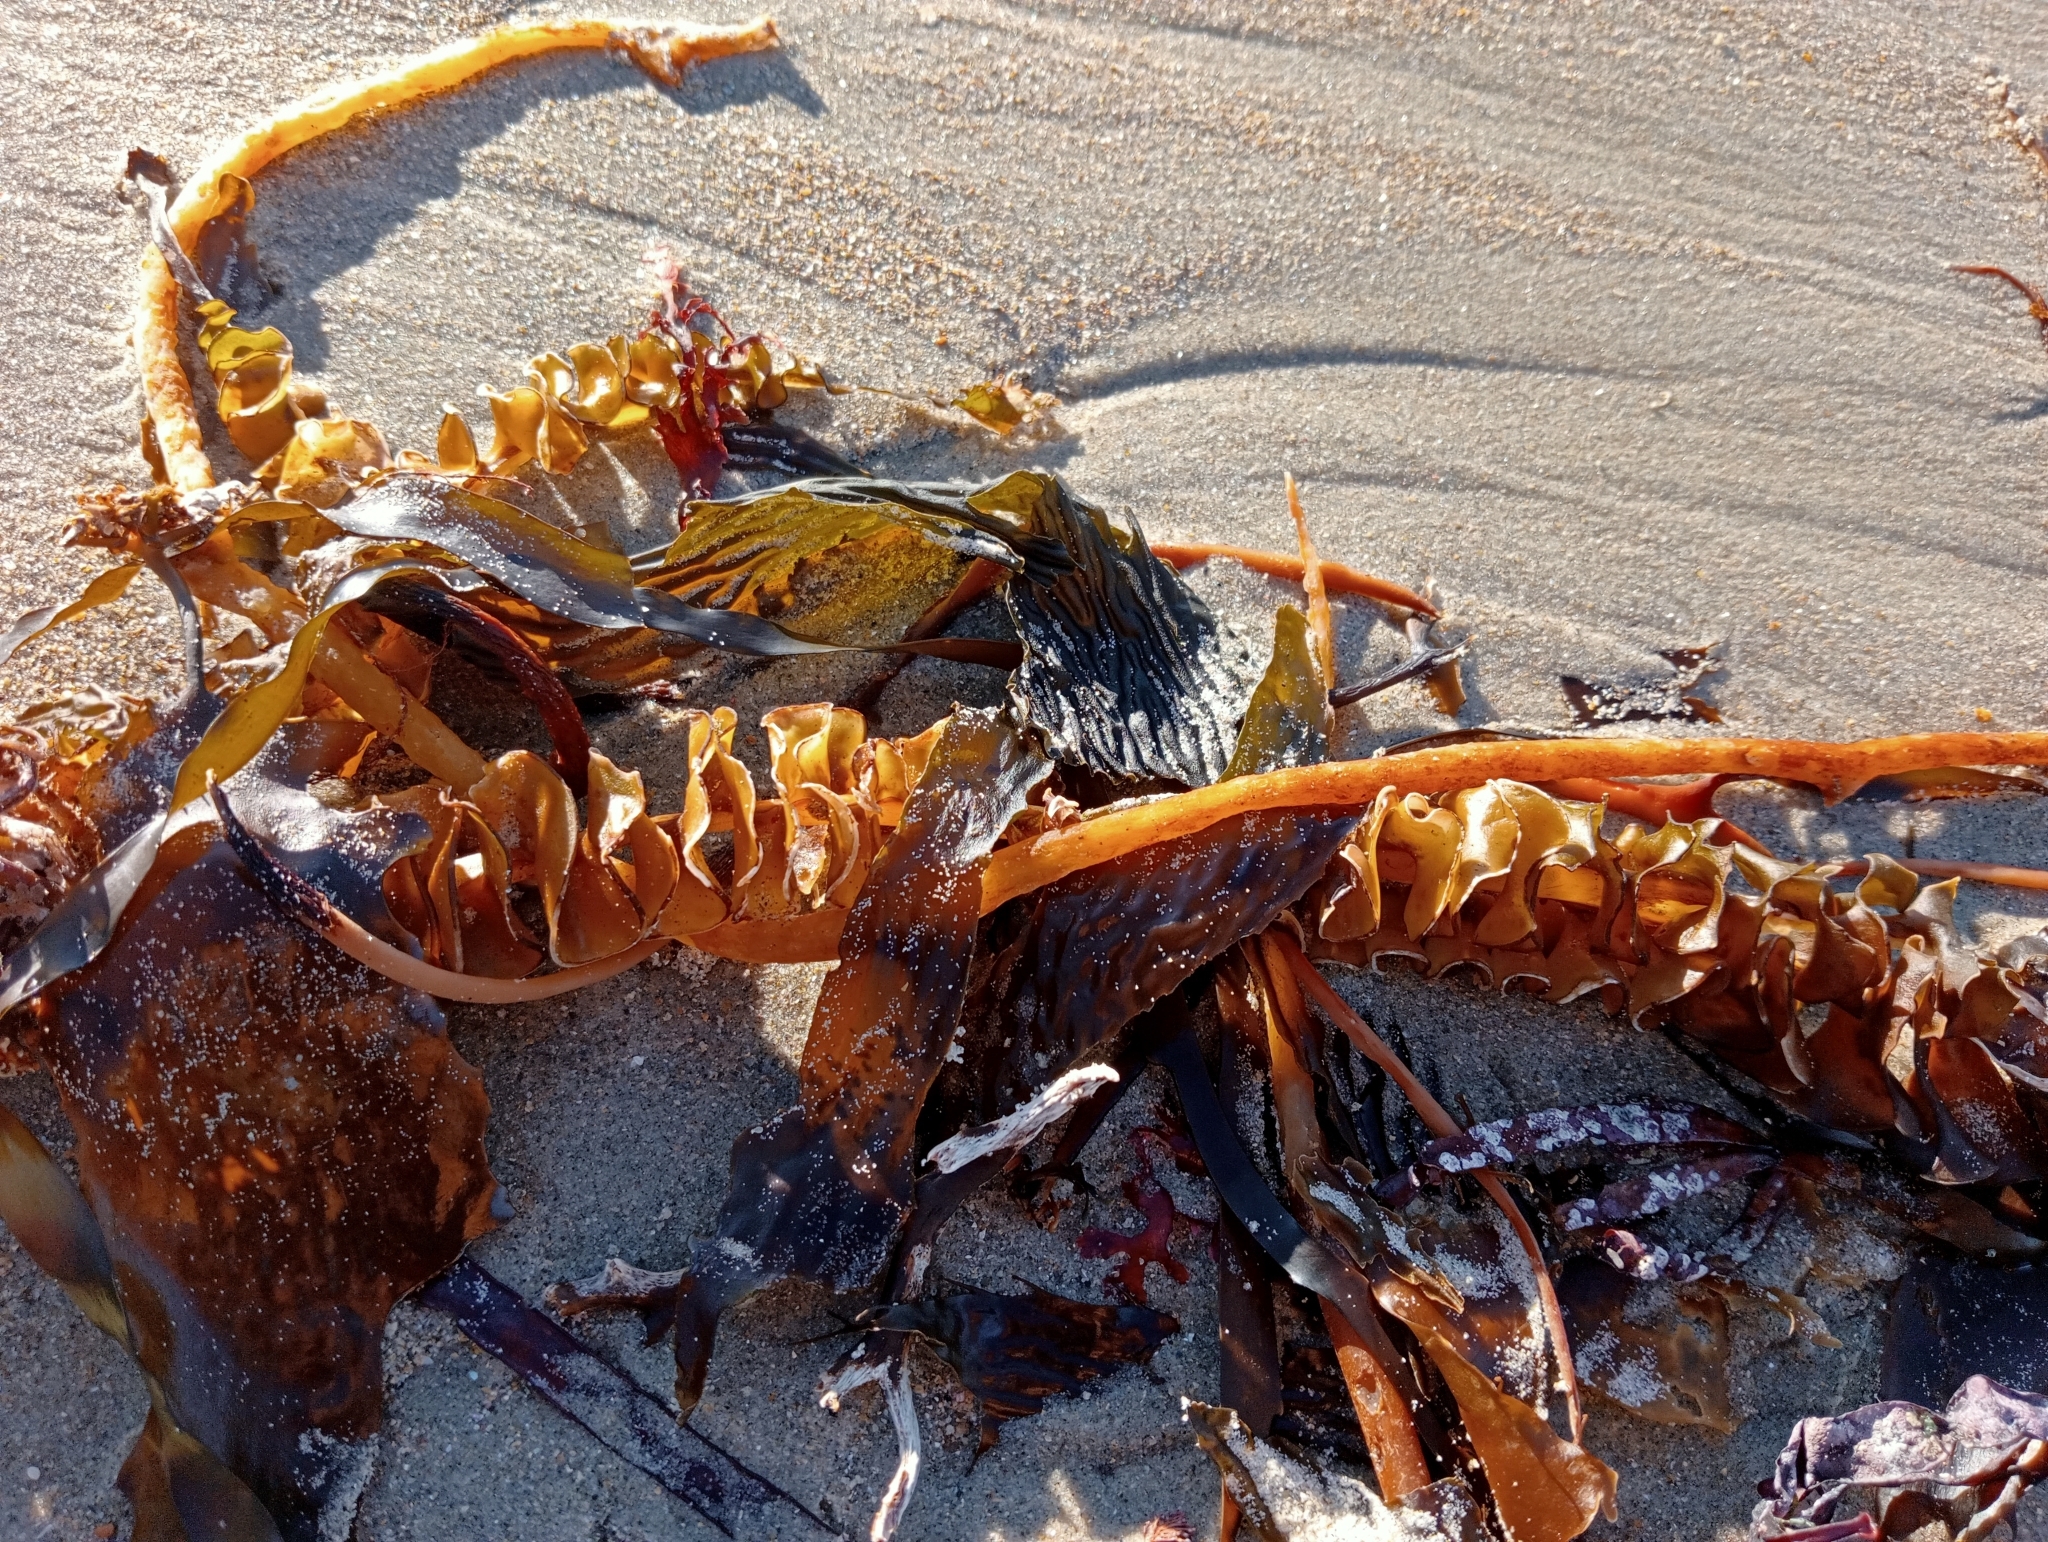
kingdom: Chromista
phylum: Ochrophyta
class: Phaeophyceae
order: Laminariales
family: Alariaceae
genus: Undaria
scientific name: Undaria pinnatifida
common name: Asian kelp
